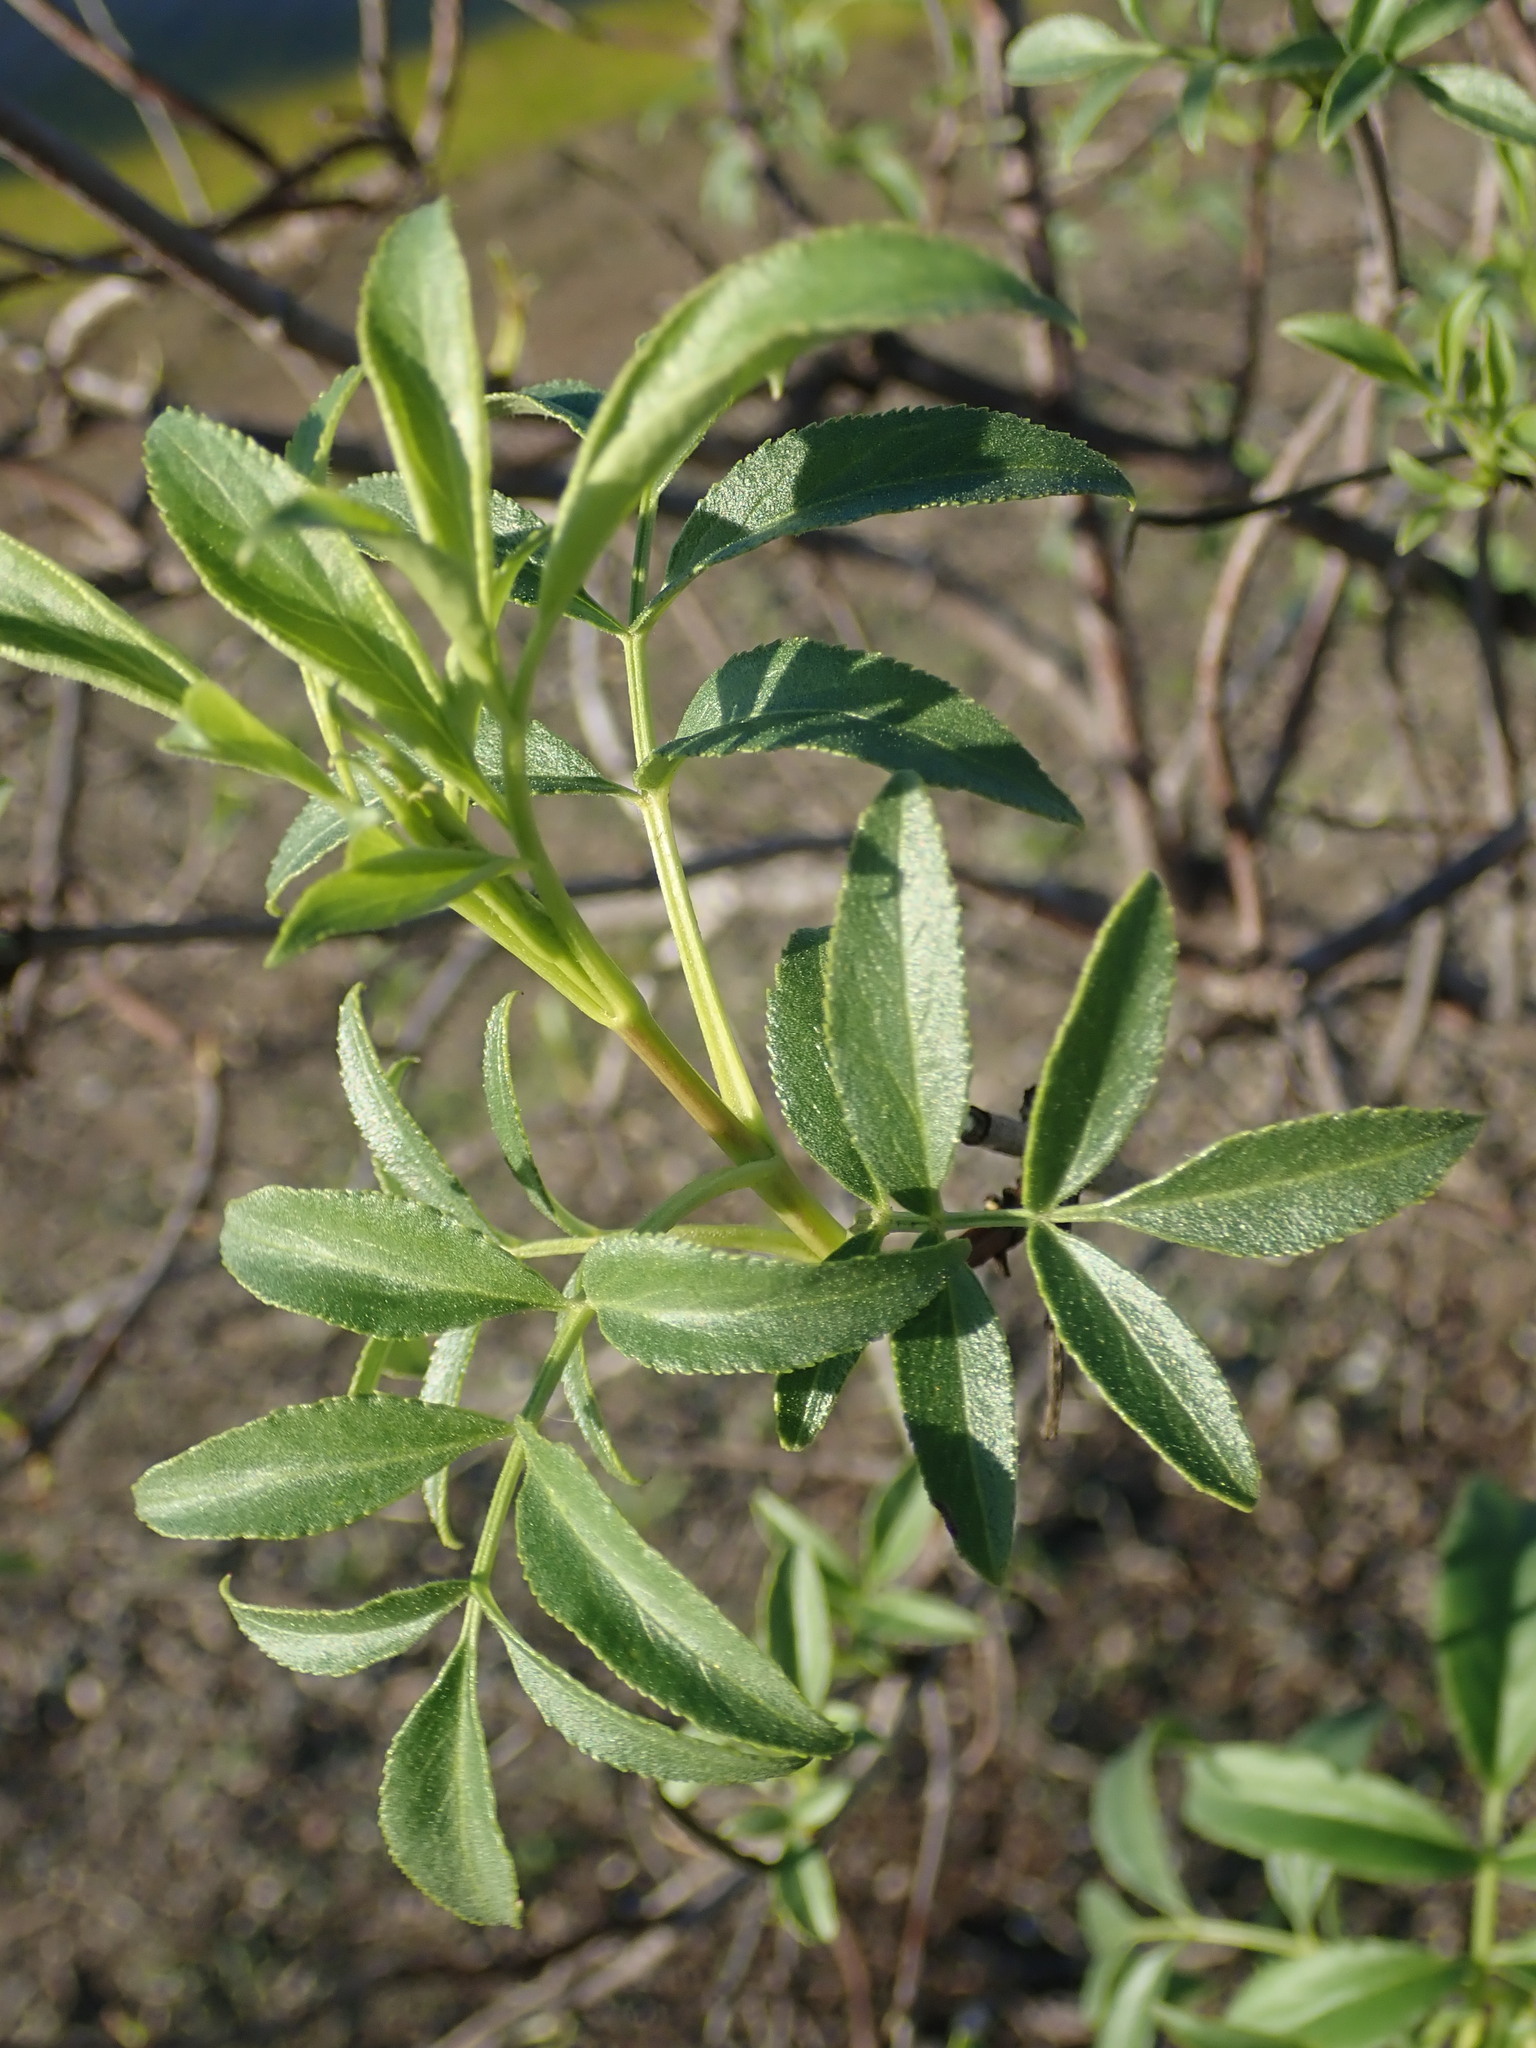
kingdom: Plantae
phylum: Tracheophyta
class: Magnoliopsida
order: Dipsacales
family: Viburnaceae
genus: Sambucus
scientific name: Sambucus cerulea
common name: Blue elder
